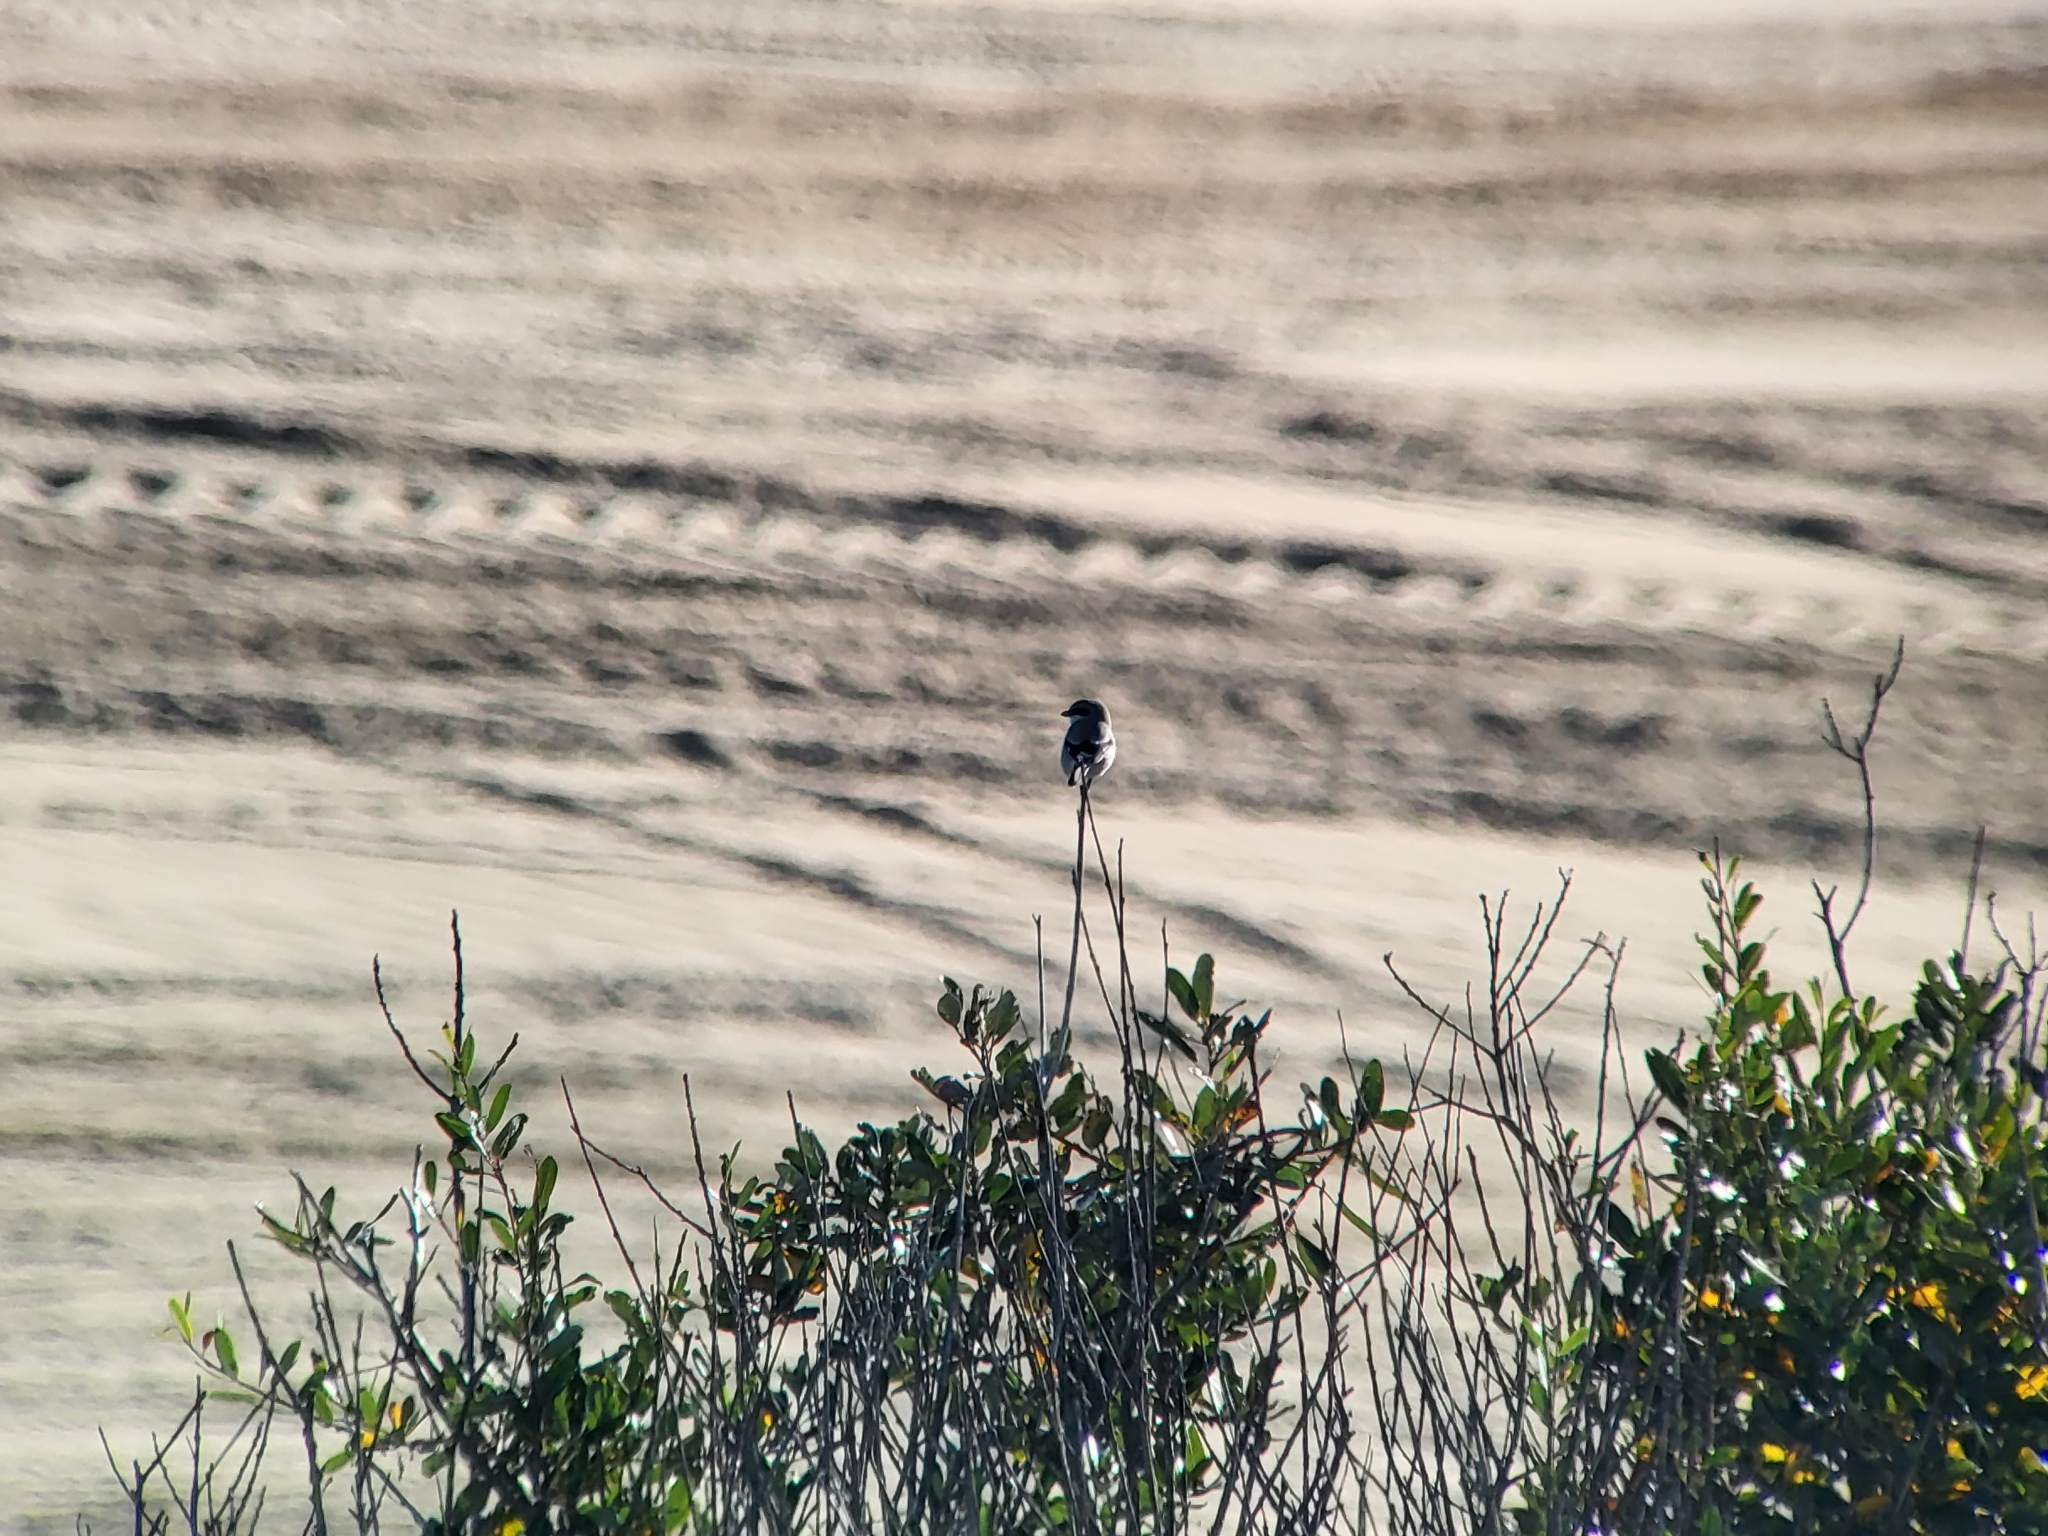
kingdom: Animalia
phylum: Chordata
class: Aves
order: Passeriformes
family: Laniidae
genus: Lanius
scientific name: Lanius ludovicianus
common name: Loggerhead shrike
